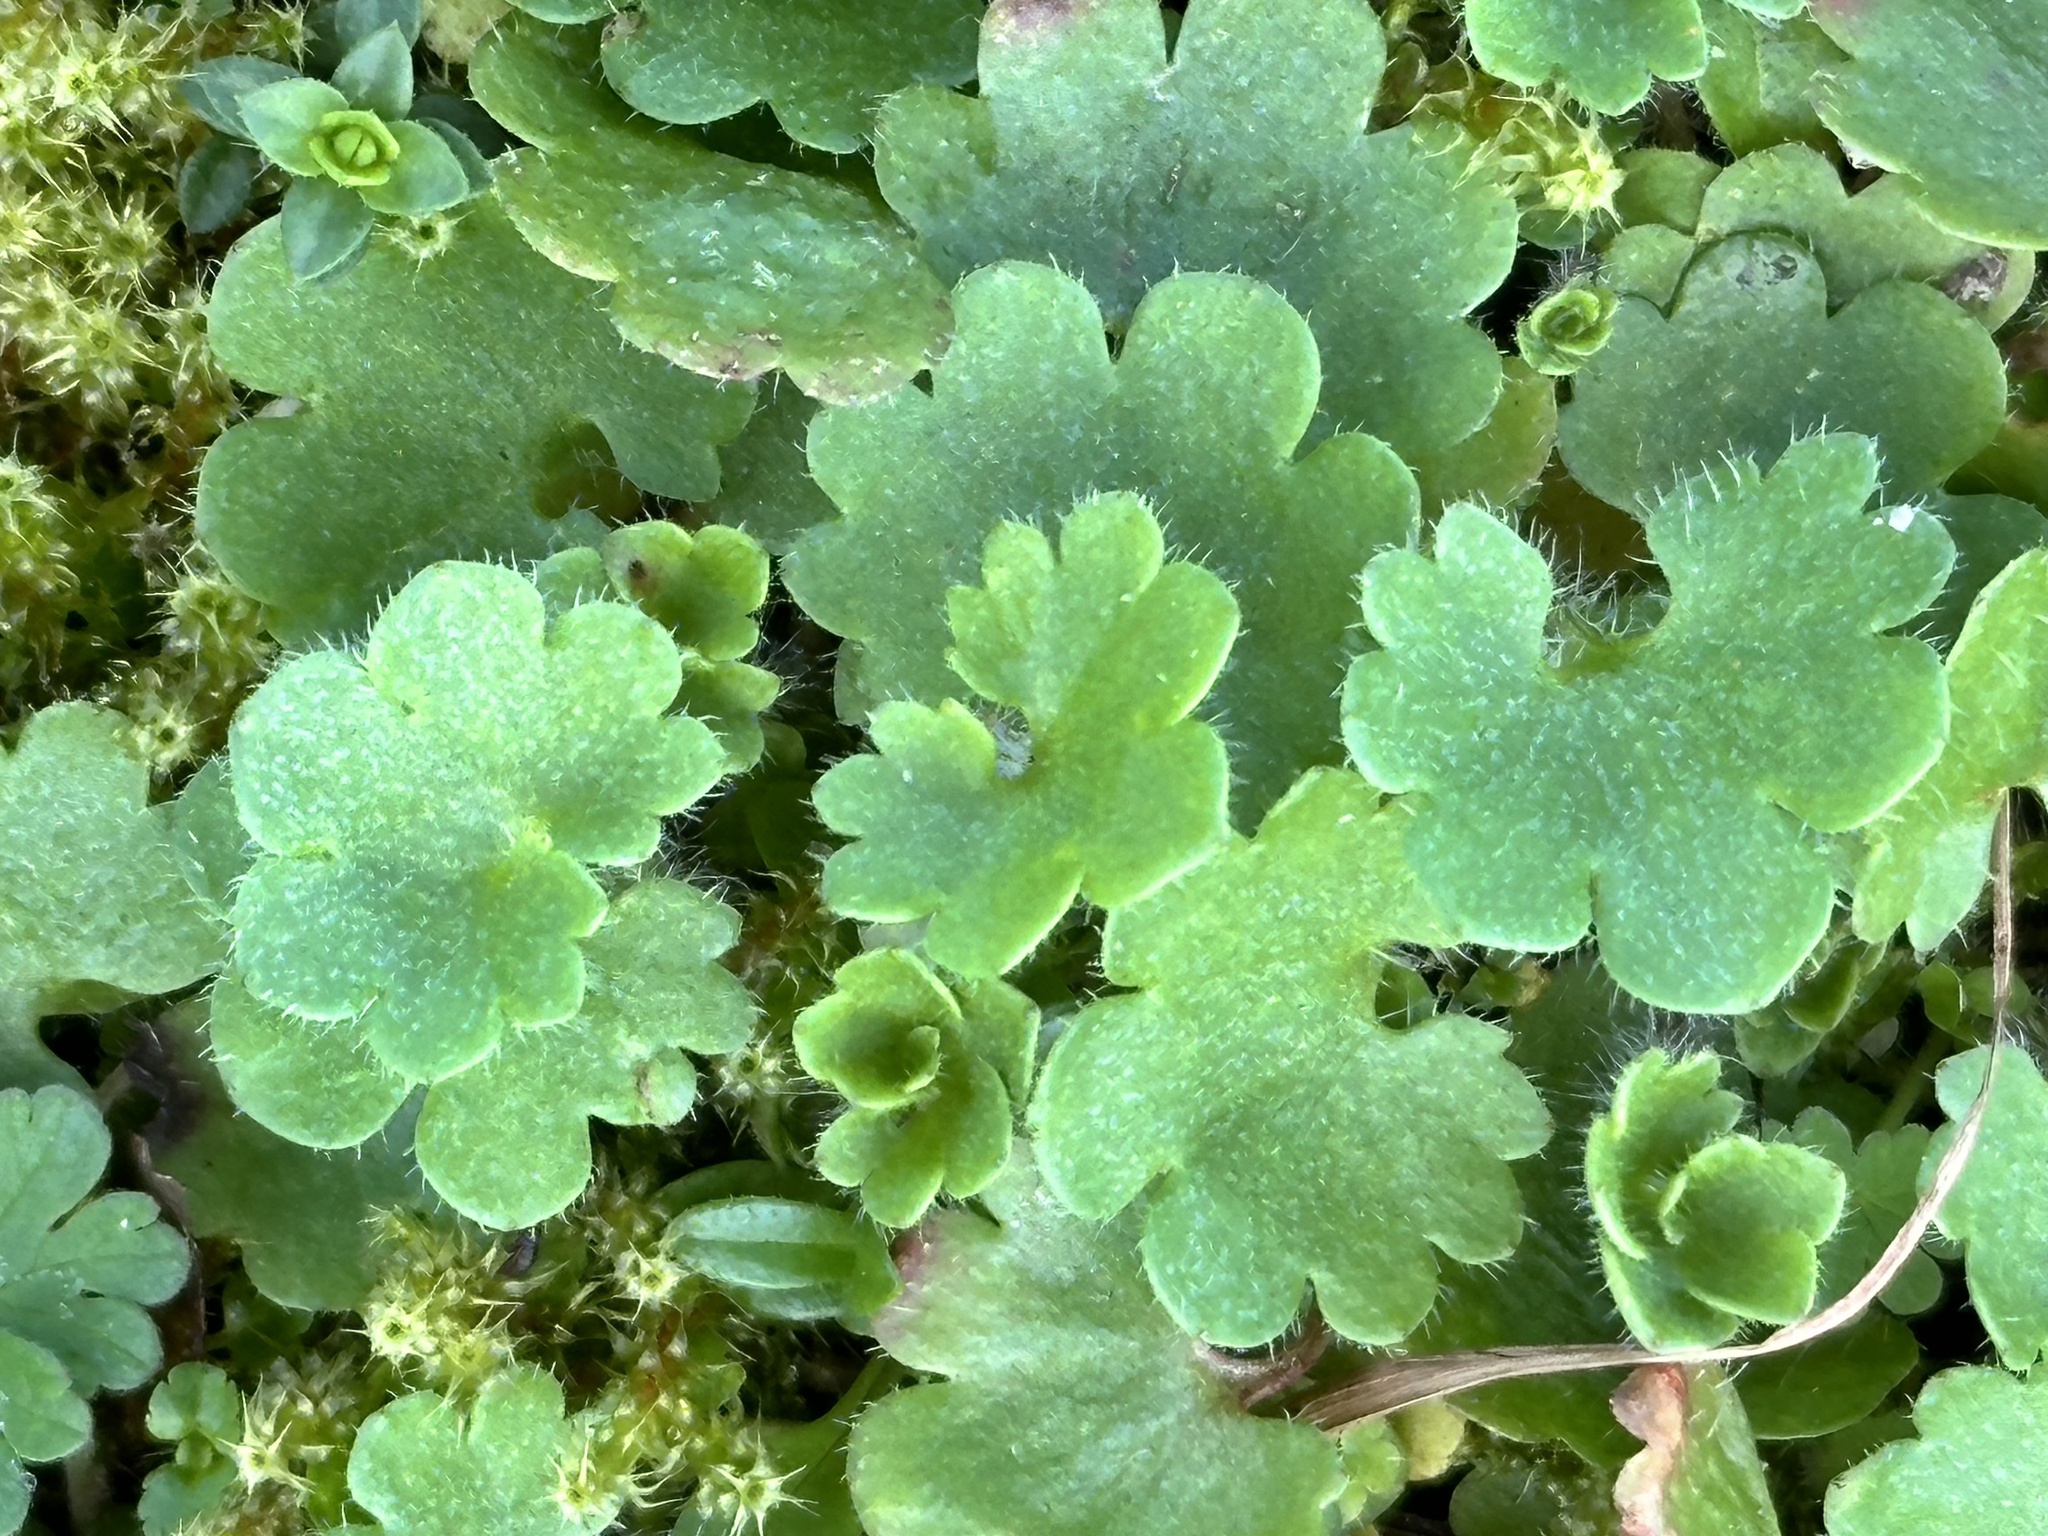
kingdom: Plantae
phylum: Tracheophyta
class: Magnoliopsida
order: Saxifragales
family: Saxifragaceae
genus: Saxifraga
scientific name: Saxifraga granulata
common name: Meadow saxifrage
